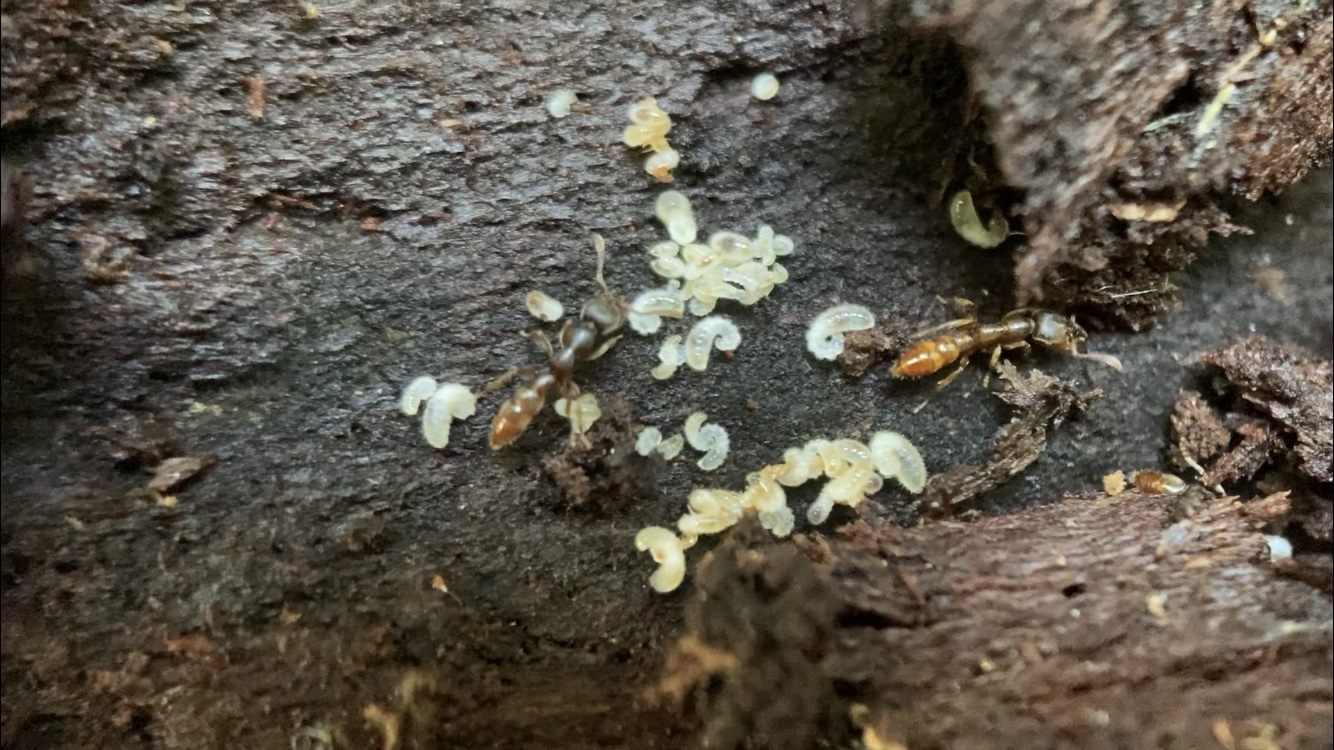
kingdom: Animalia
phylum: Arthropoda
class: Insecta
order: Hymenoptera
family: Formicidae
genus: Stigmatomma
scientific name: Stigmatomma pallipes
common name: Vampire ant
